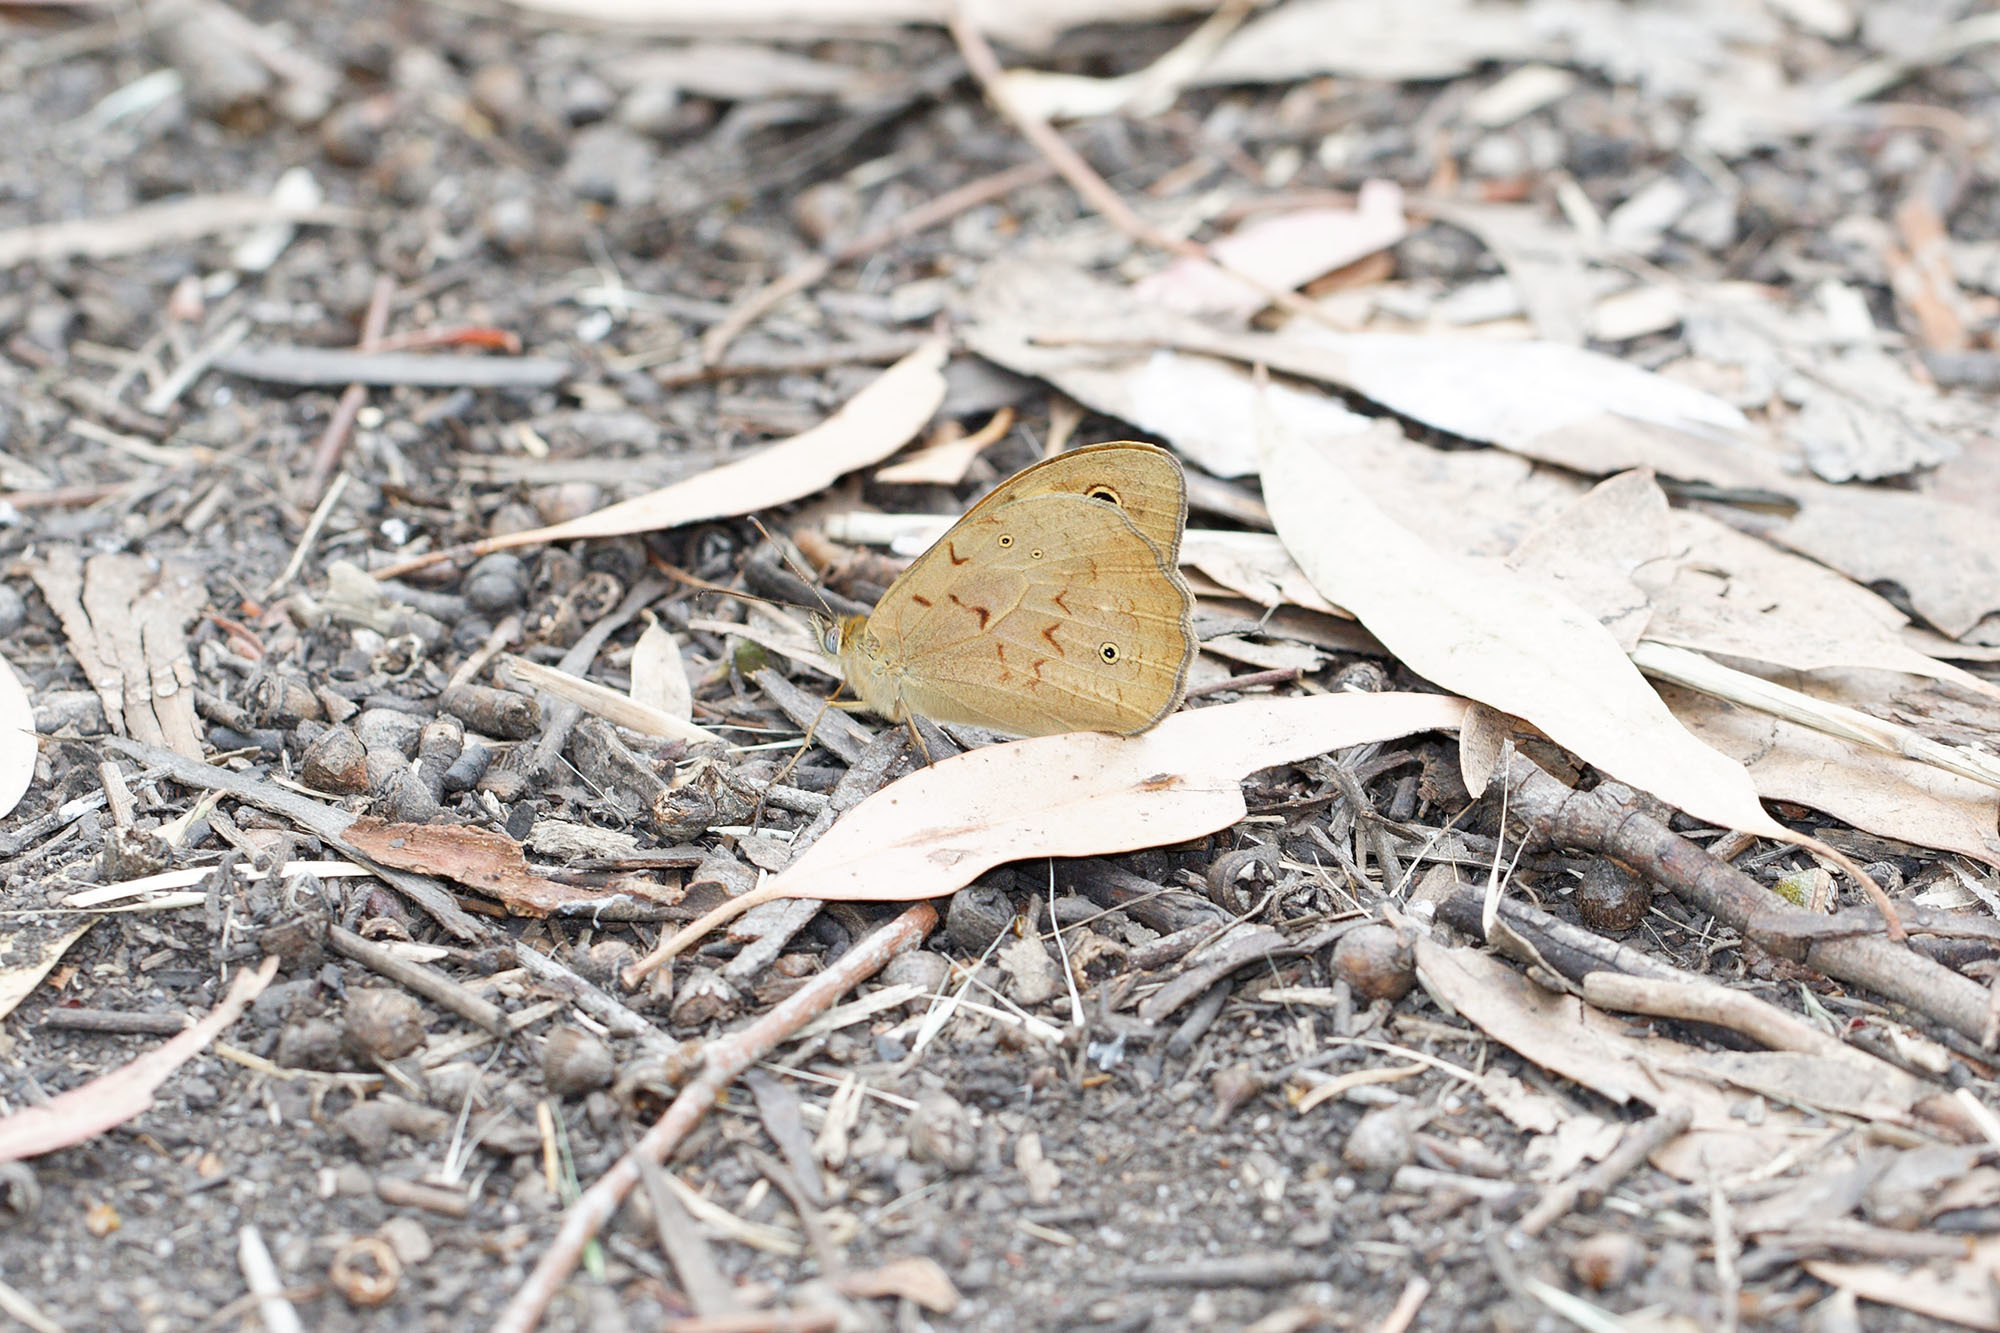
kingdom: Animalia
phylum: Arthropoda
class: Insecta
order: Lepidoptera
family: Nymphalidae
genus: Heteronympha
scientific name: Heteronympha merope
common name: Common brown
